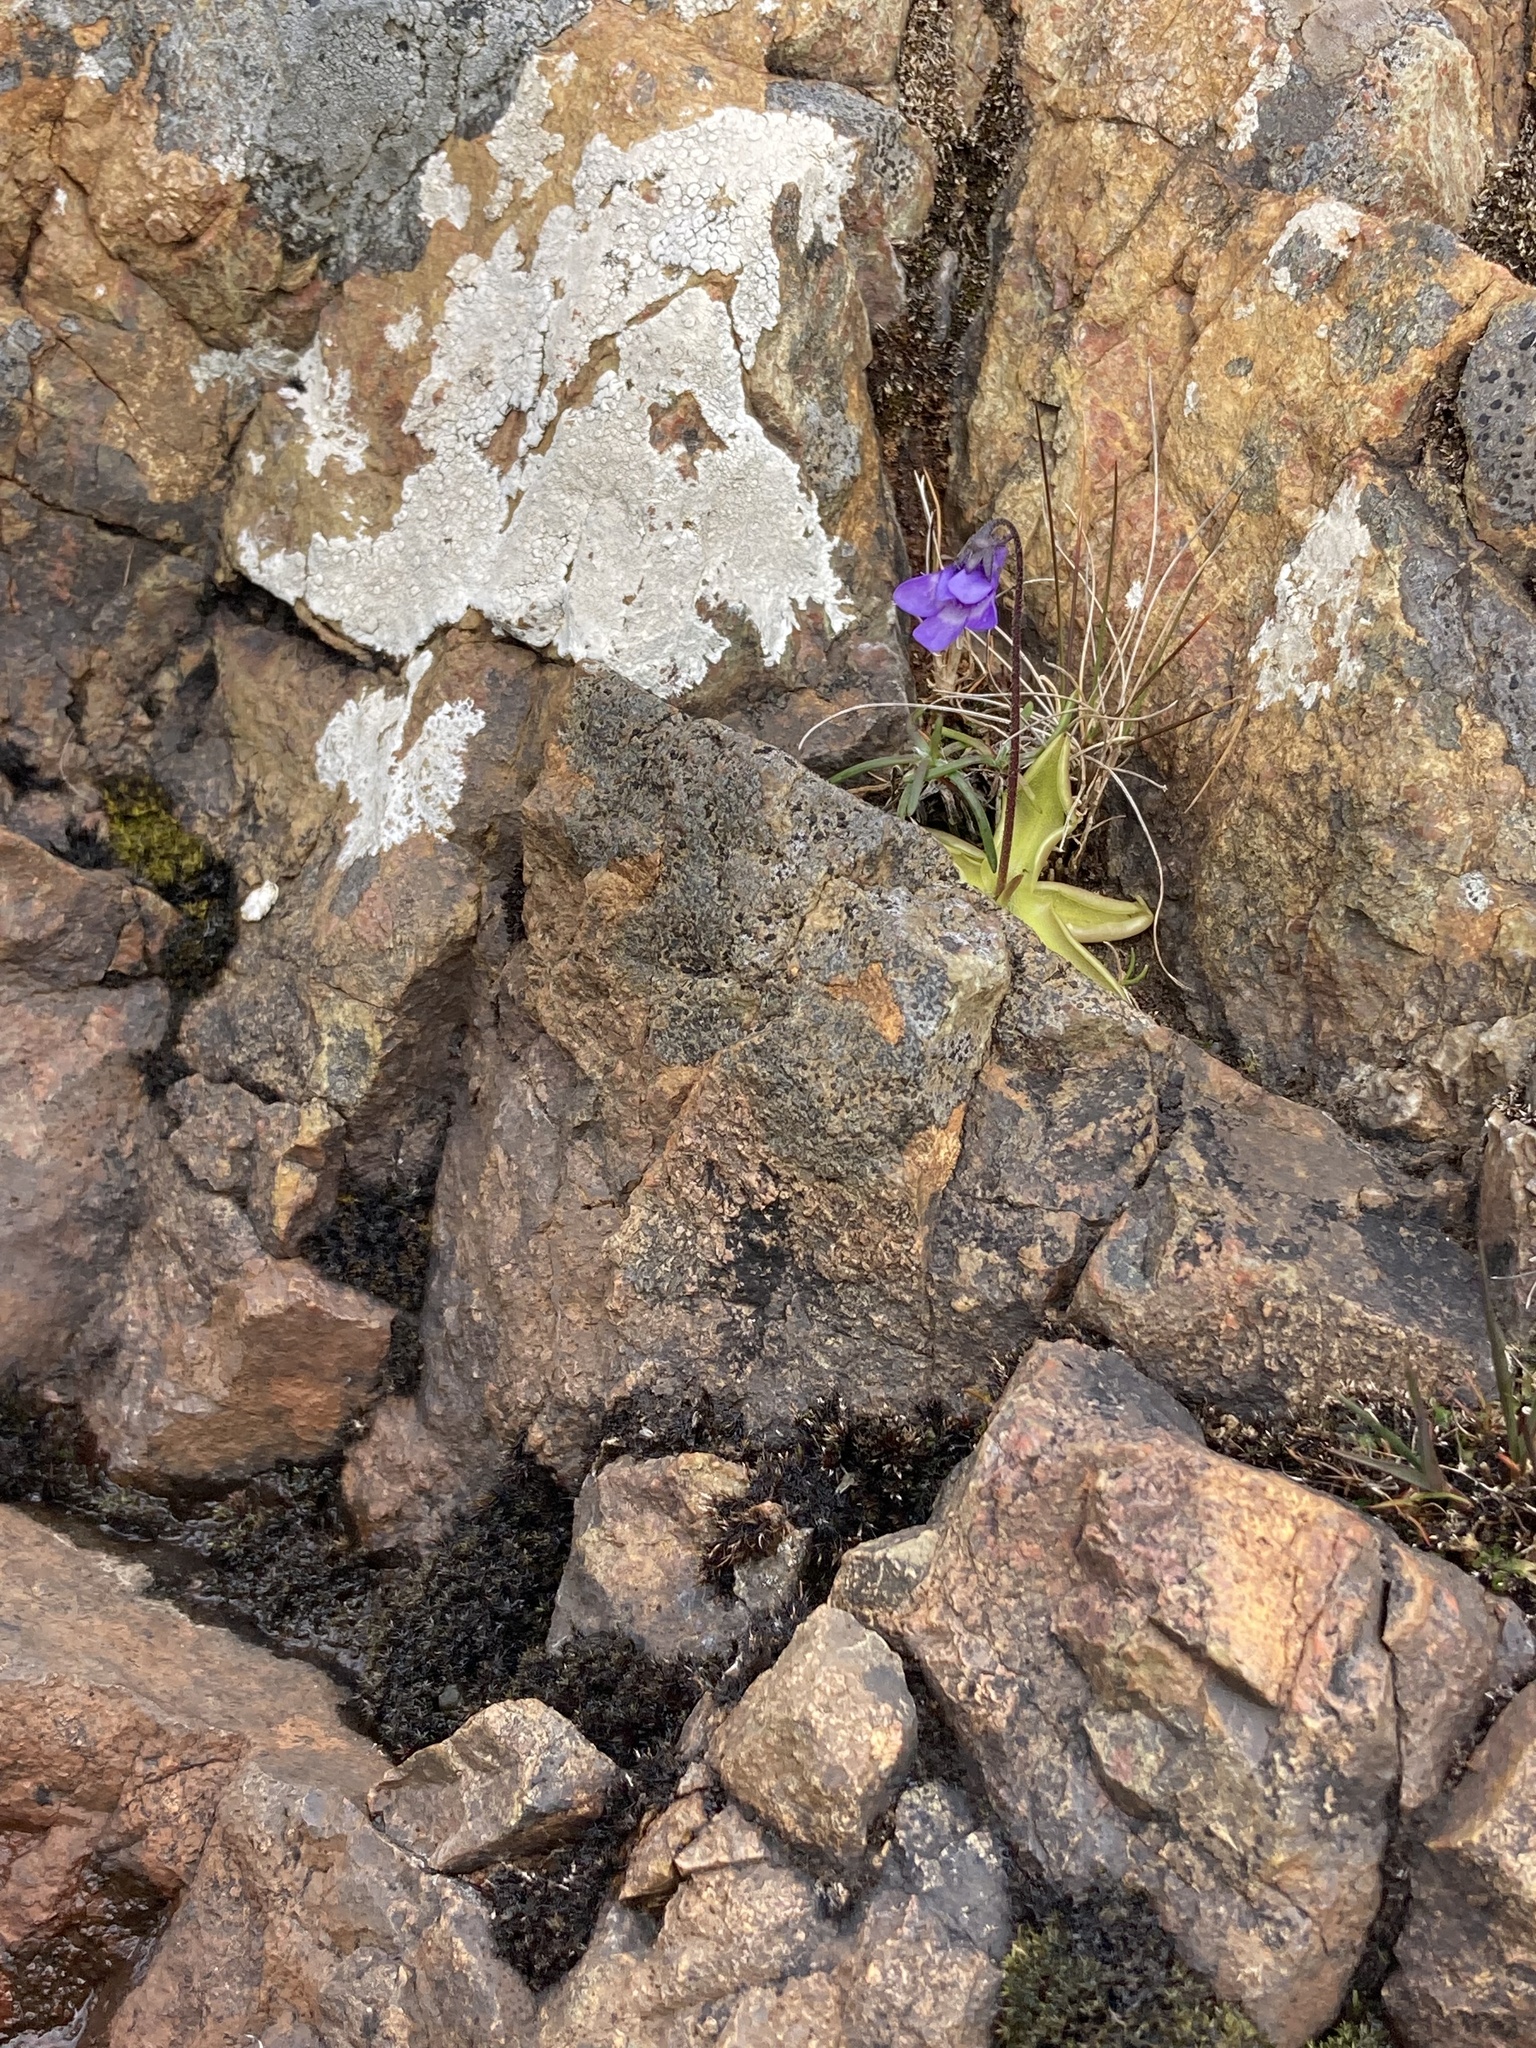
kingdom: Plantae
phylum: Tracheophyta
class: Magnoliopsida
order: Lamiales
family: Lentibulariaceae
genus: Pinguicula
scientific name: Pinguicula vulgaris
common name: Common butterwort
